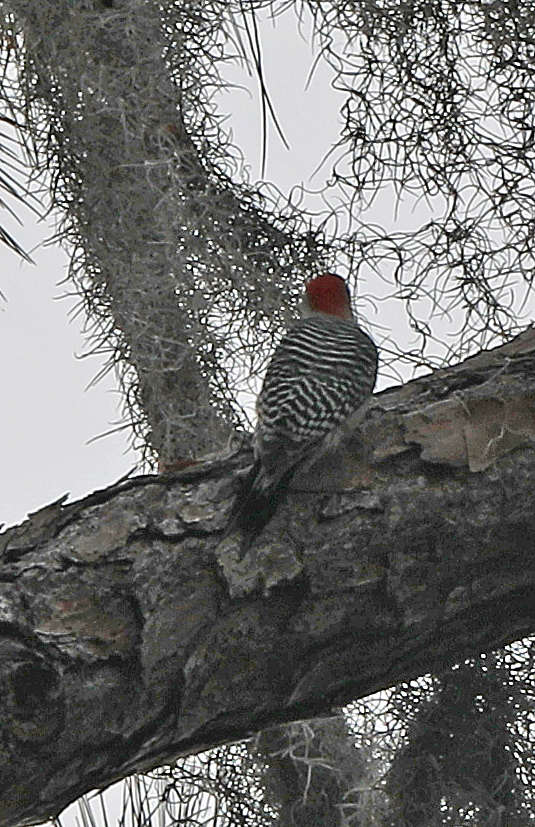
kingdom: Animalia
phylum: Chordata
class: Aves
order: Piciformes
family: Picidae
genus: Melanerpes
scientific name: Melanerpes carolinus
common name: Red-bellied woodpecker
